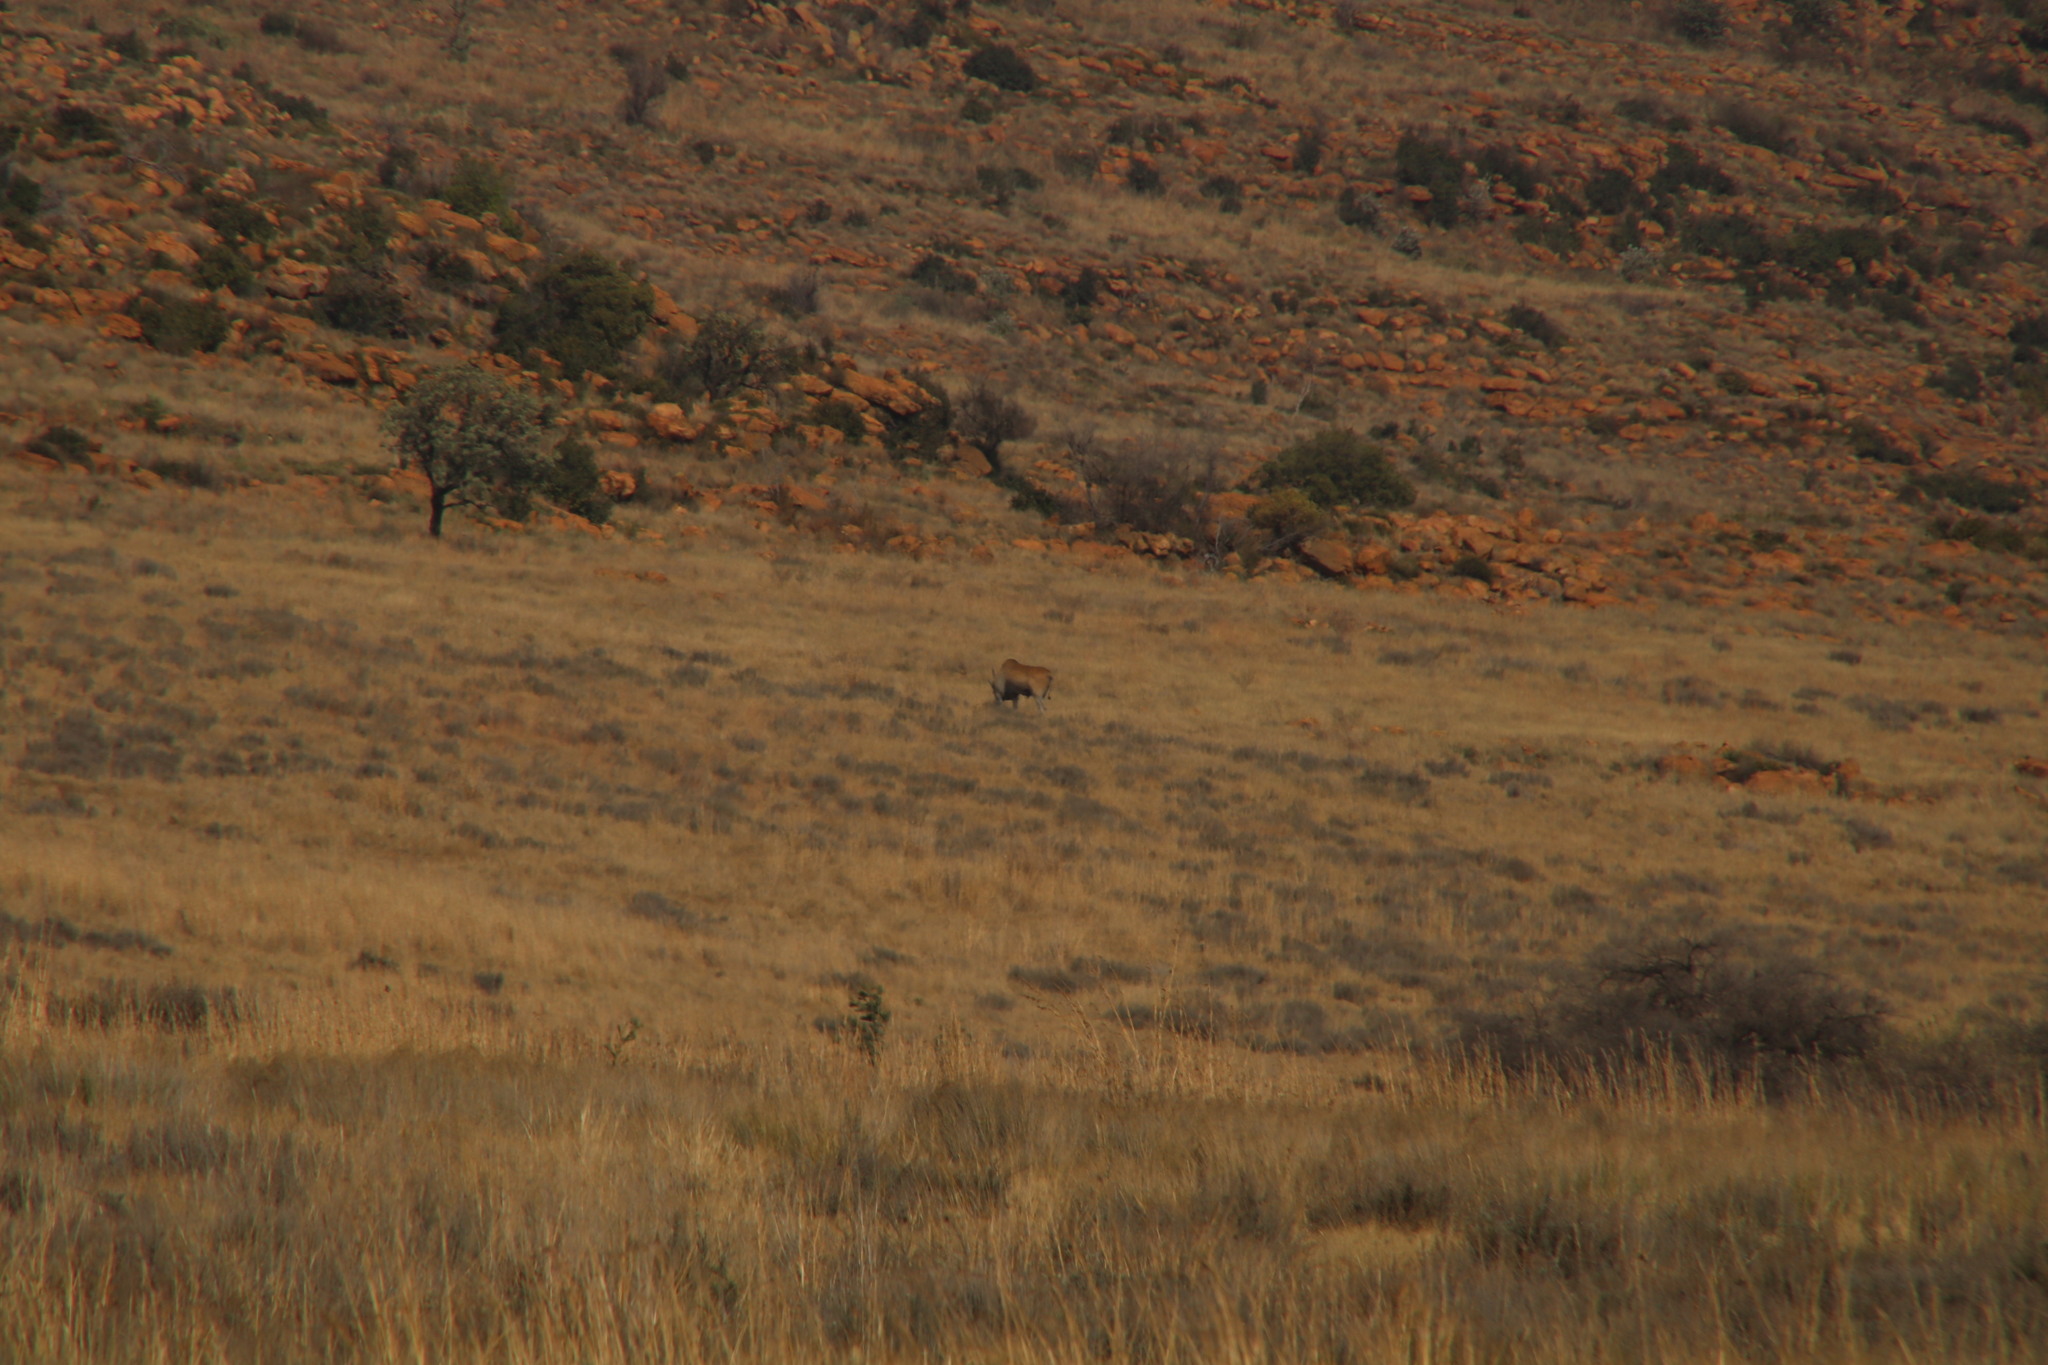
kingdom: Animalia
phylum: Chordata
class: Mammalia
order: Artiodactyla
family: Bovidae
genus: Taurotragus
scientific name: Taurotragus oryx
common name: Common eland
